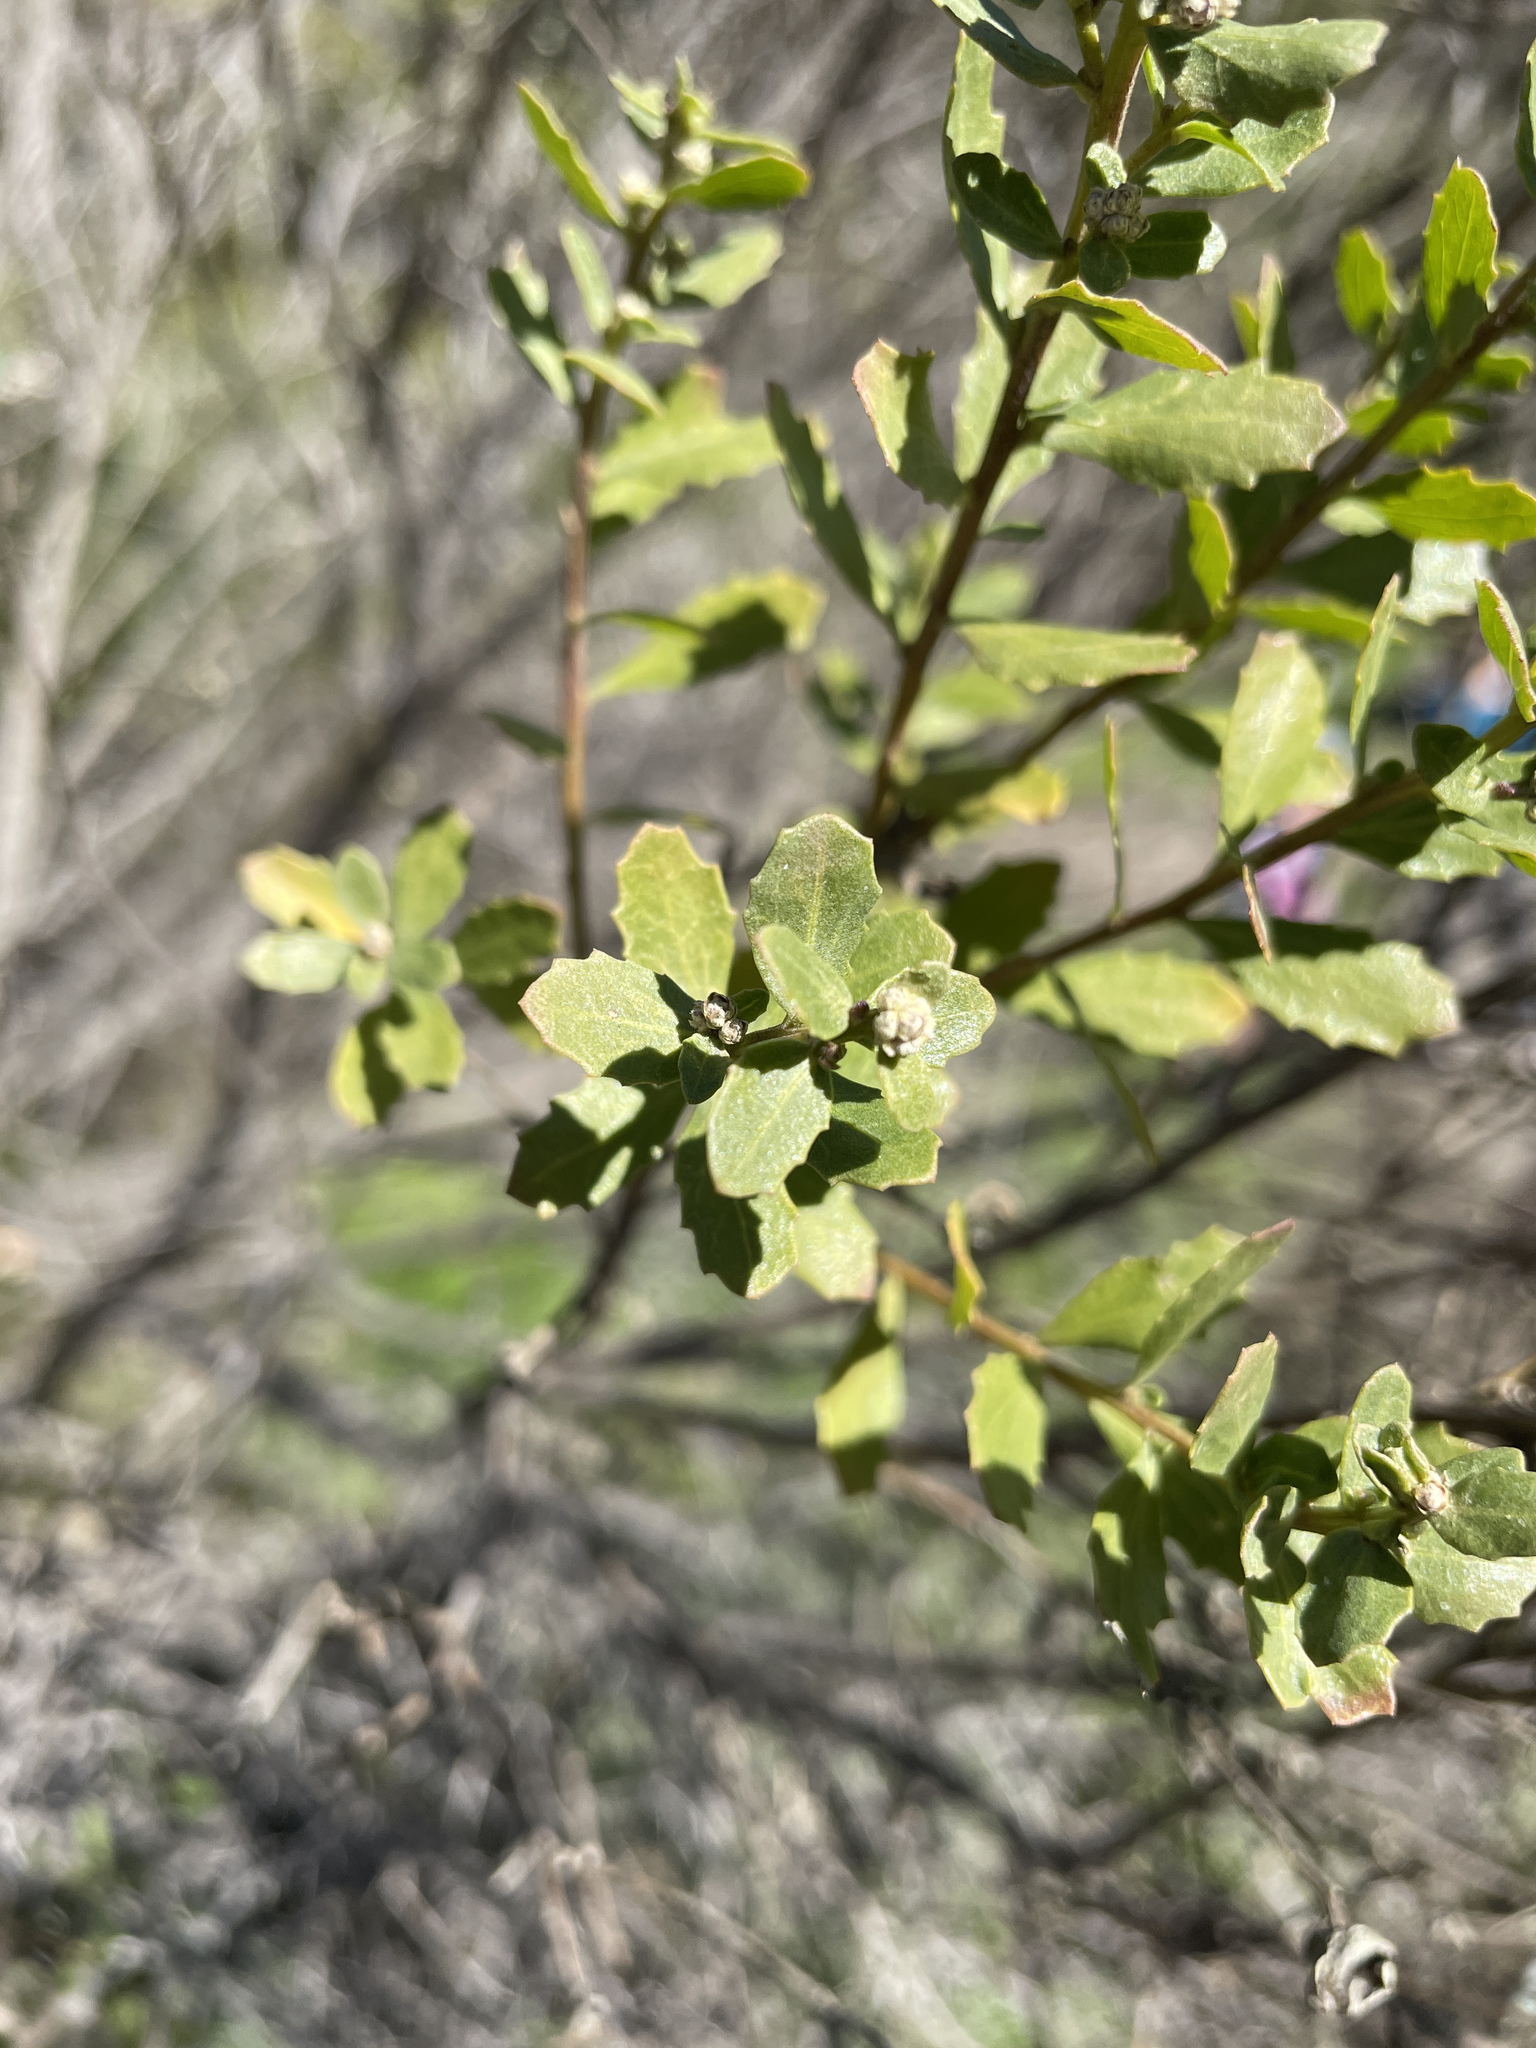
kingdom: Plantae
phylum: Tracheophyta
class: Magnoliopsida
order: Asterales
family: Asteraceae
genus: Baccharis
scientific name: Baccharis pilularis
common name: Coyotebrush
